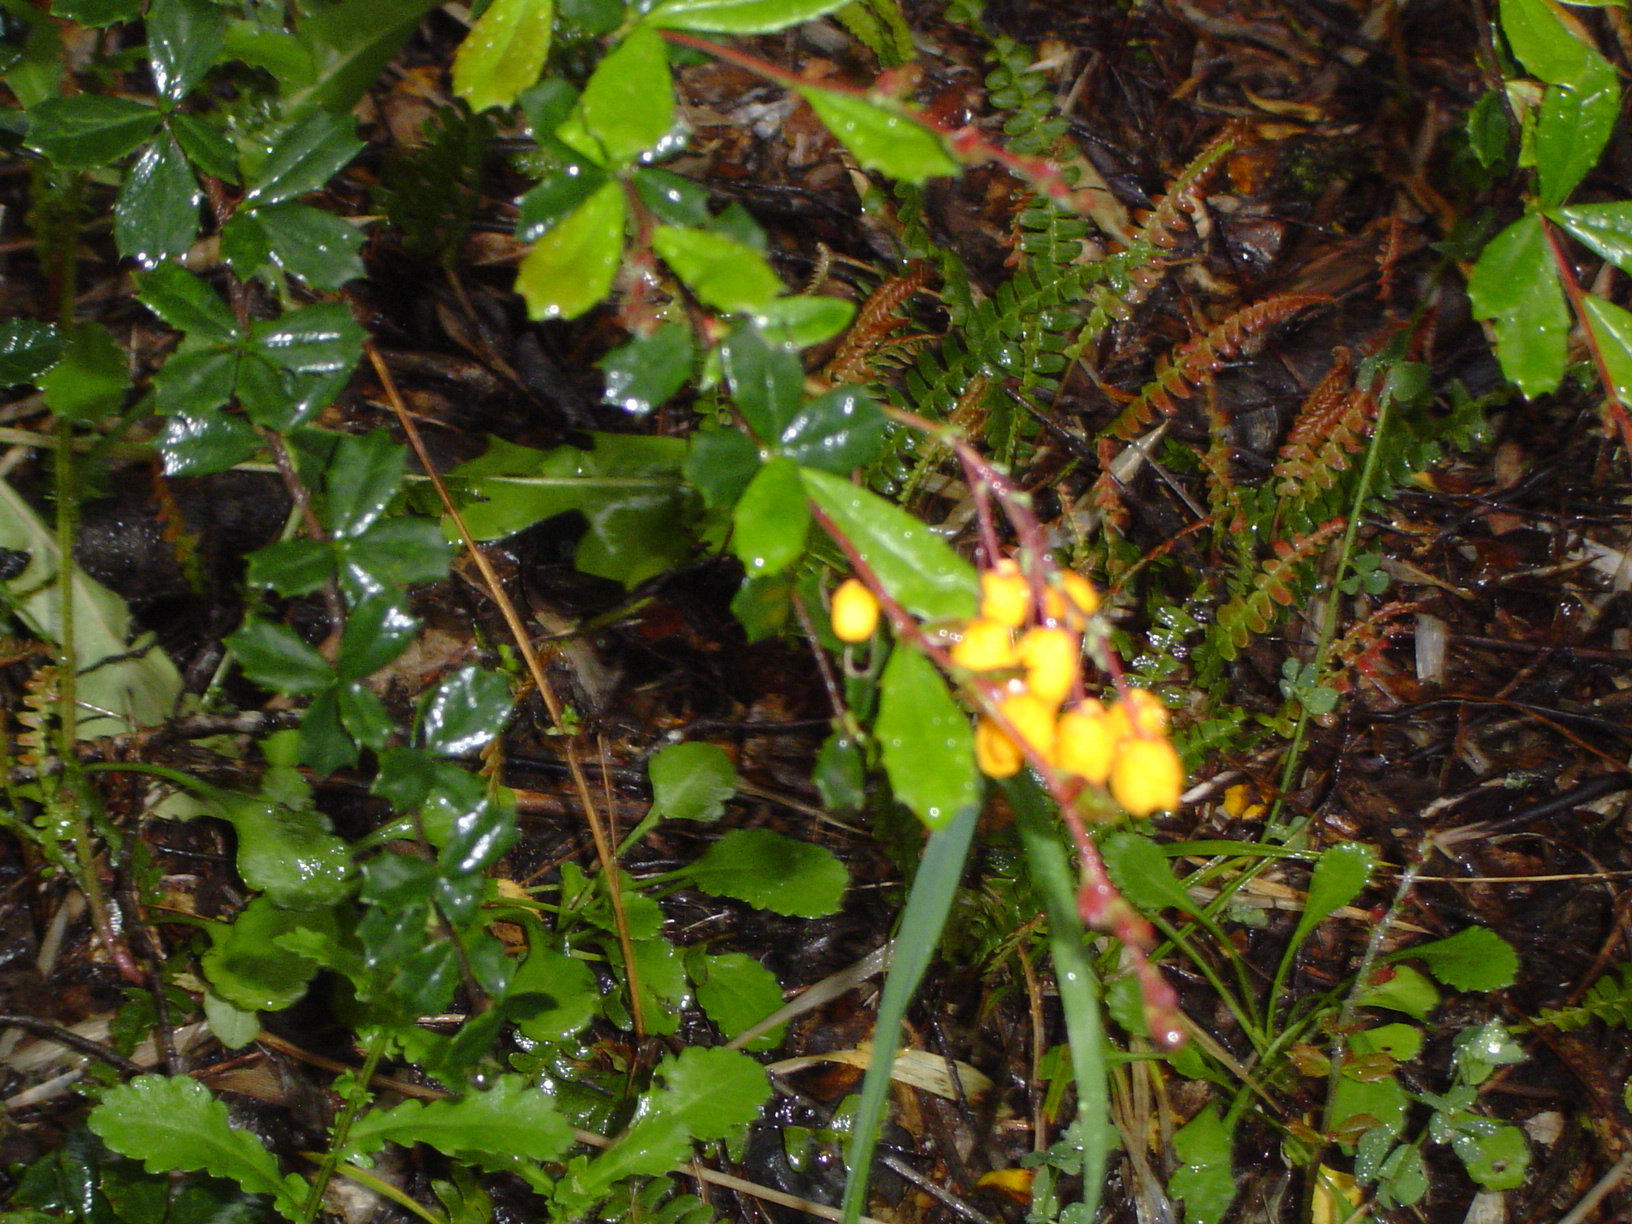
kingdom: Plantae
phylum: Tracheophyta
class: Magnoliopsida
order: Ranunculales
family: Berberidaceae
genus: Berberis
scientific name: Berberis darwinii
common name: Darwin's barberry
